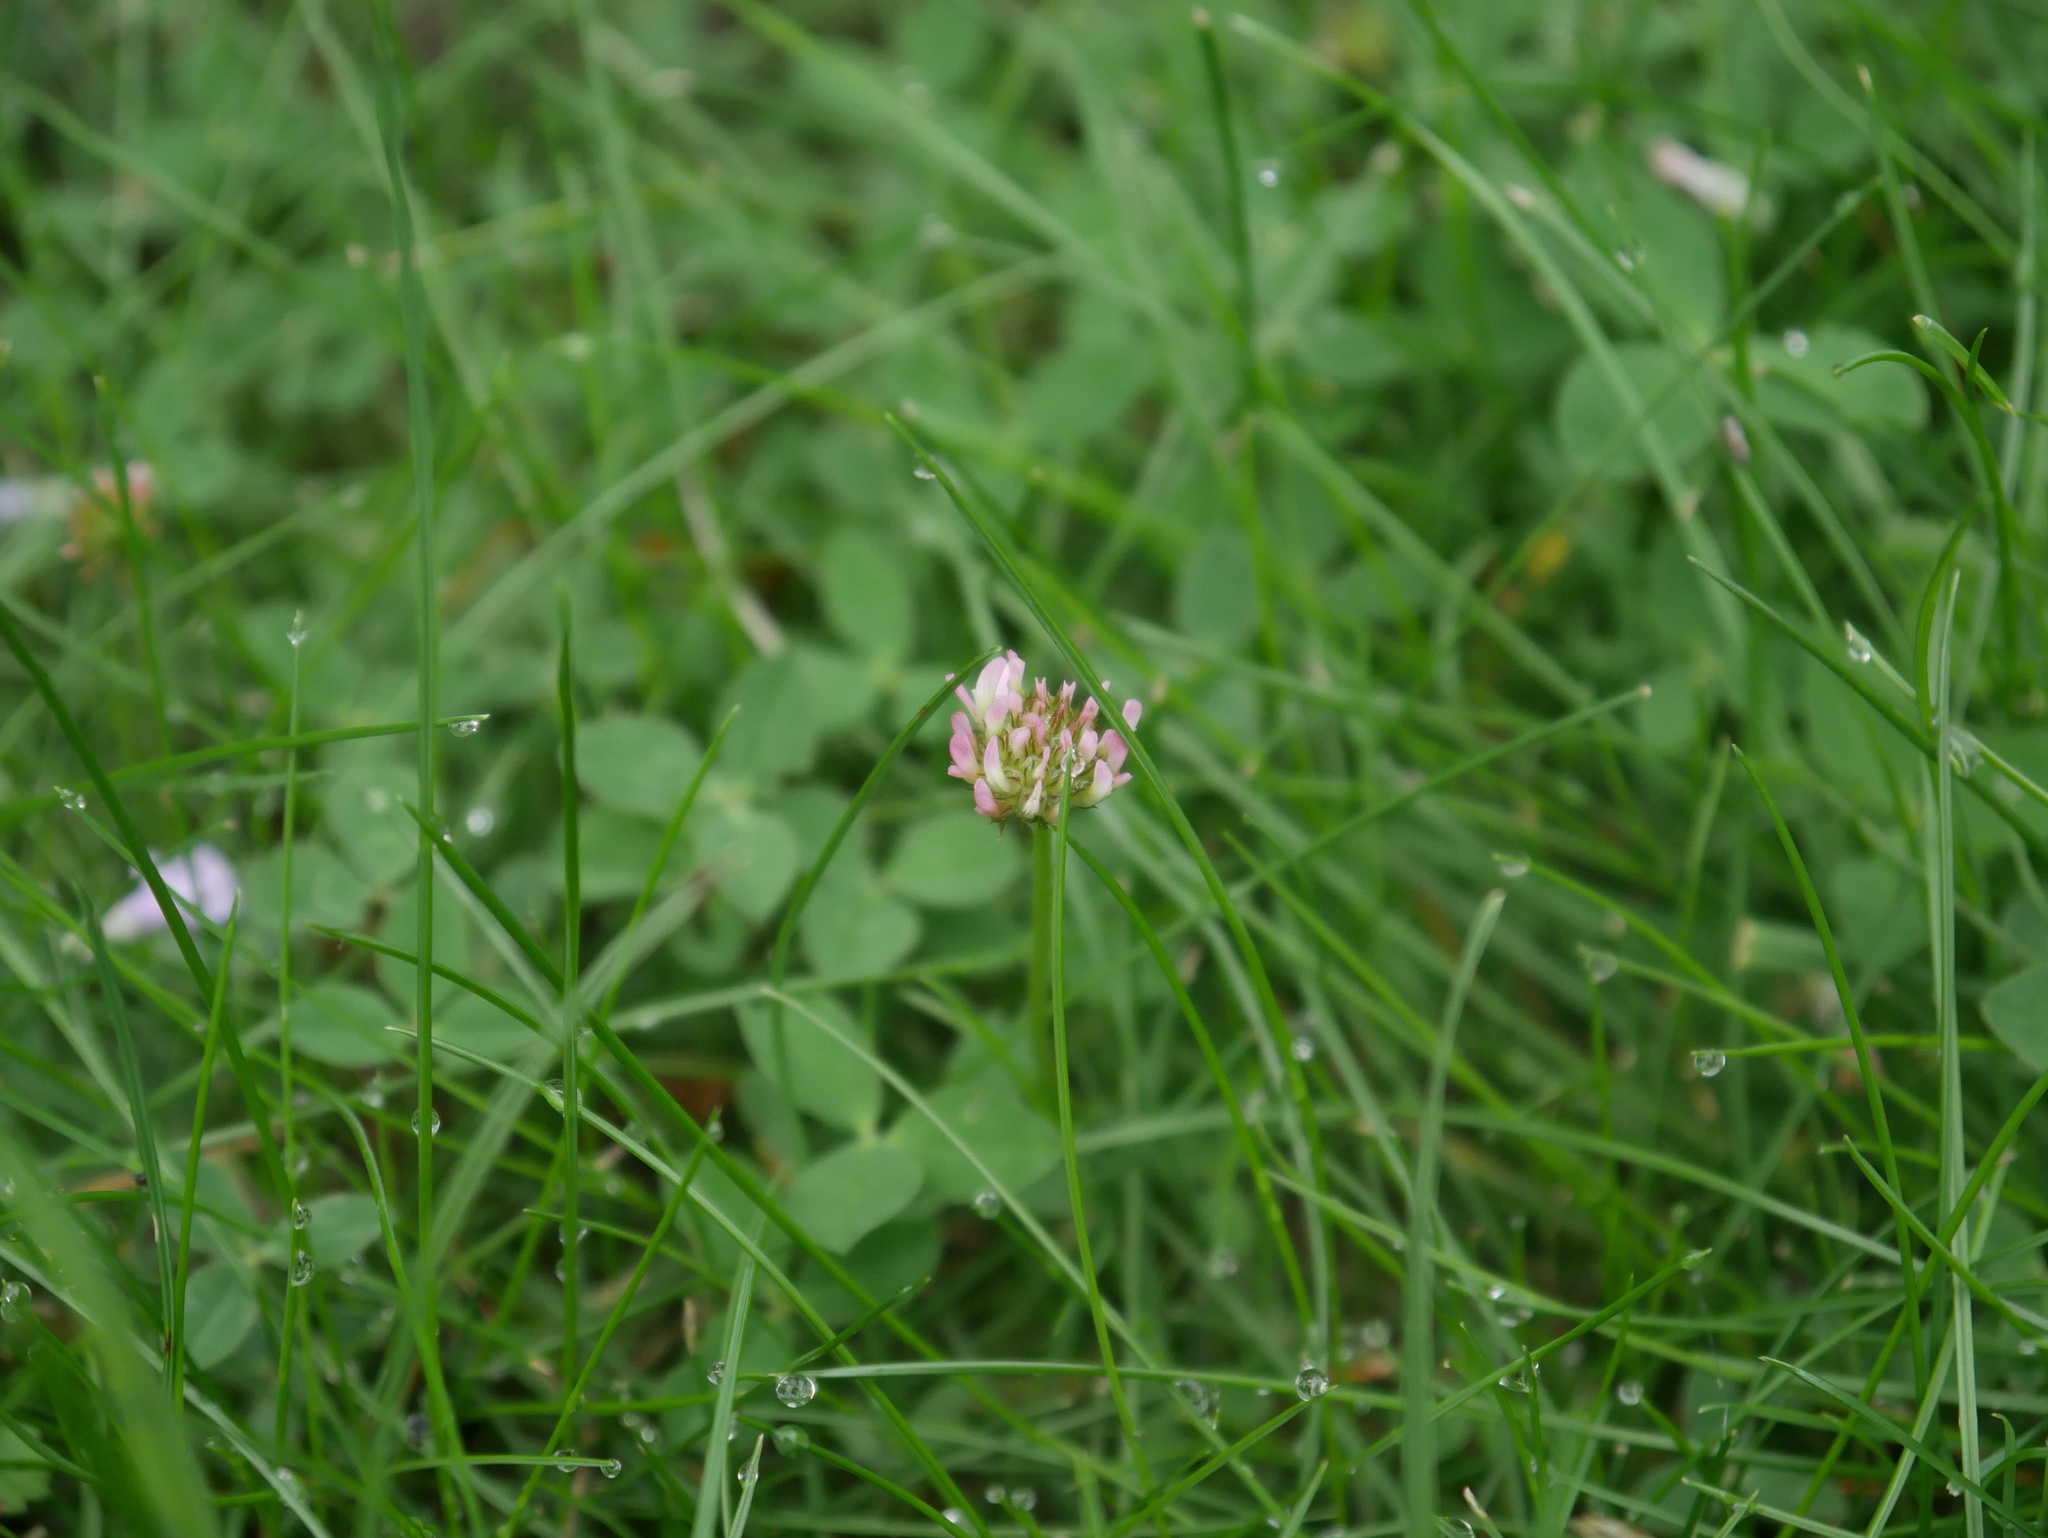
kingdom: Plantae
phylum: Tracheophyta
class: Magnoliopsida
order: Fabales
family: Fabaceae
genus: Trifolium
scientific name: Trifolium fragiferum
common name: Strawberry clover
